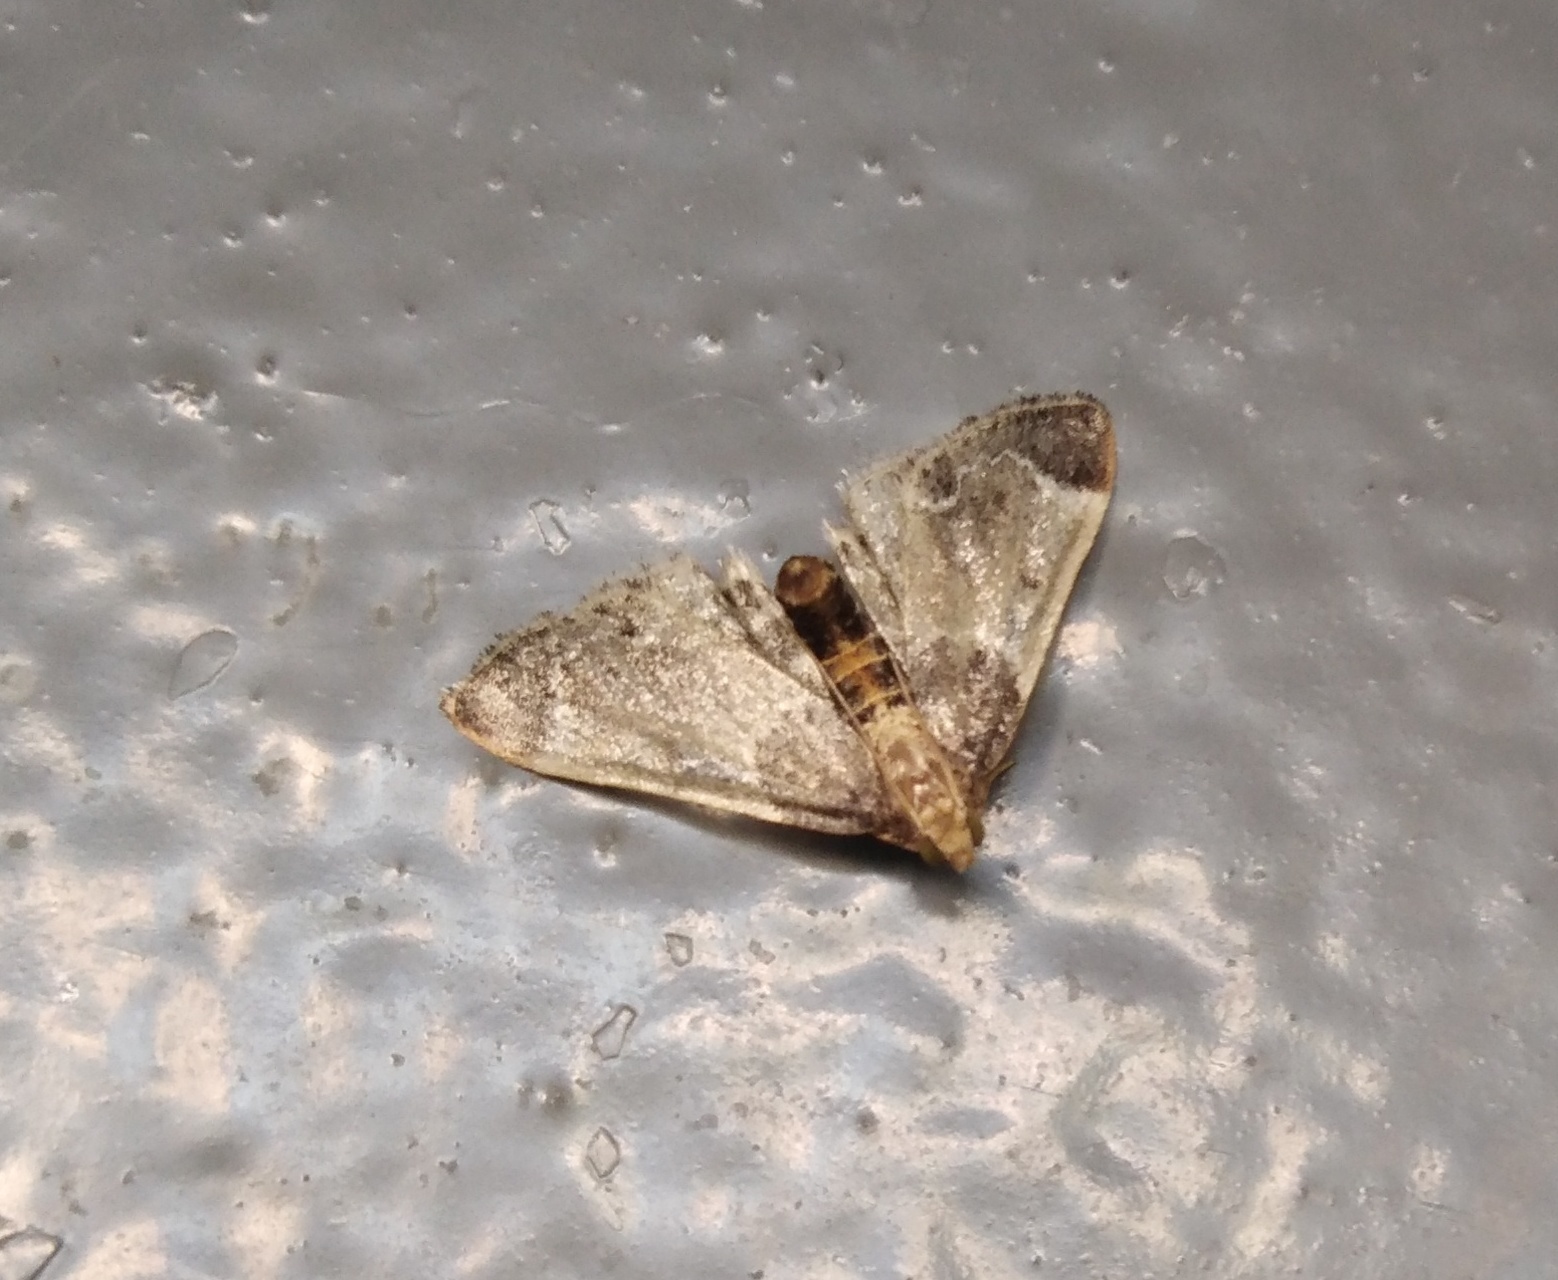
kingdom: Animalia
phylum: Arthropoda
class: Insecta
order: Lepidoptera
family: Pyralidae
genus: Pyralis
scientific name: Pyralis farinalis
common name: Meal moth
